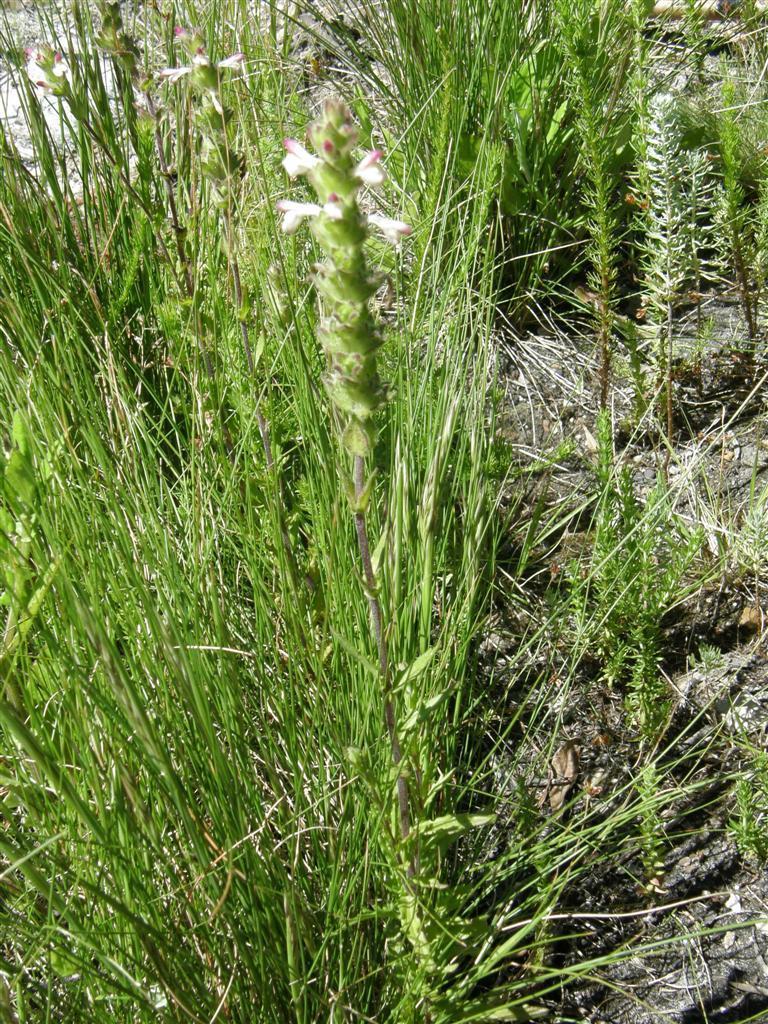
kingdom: Plantae
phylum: Tracheophyta
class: Magnoliopsida
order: Lamiales
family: Orobanchaceae
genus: Bellardia
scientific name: Bellardia trixago
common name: Mediterranean lineseed
